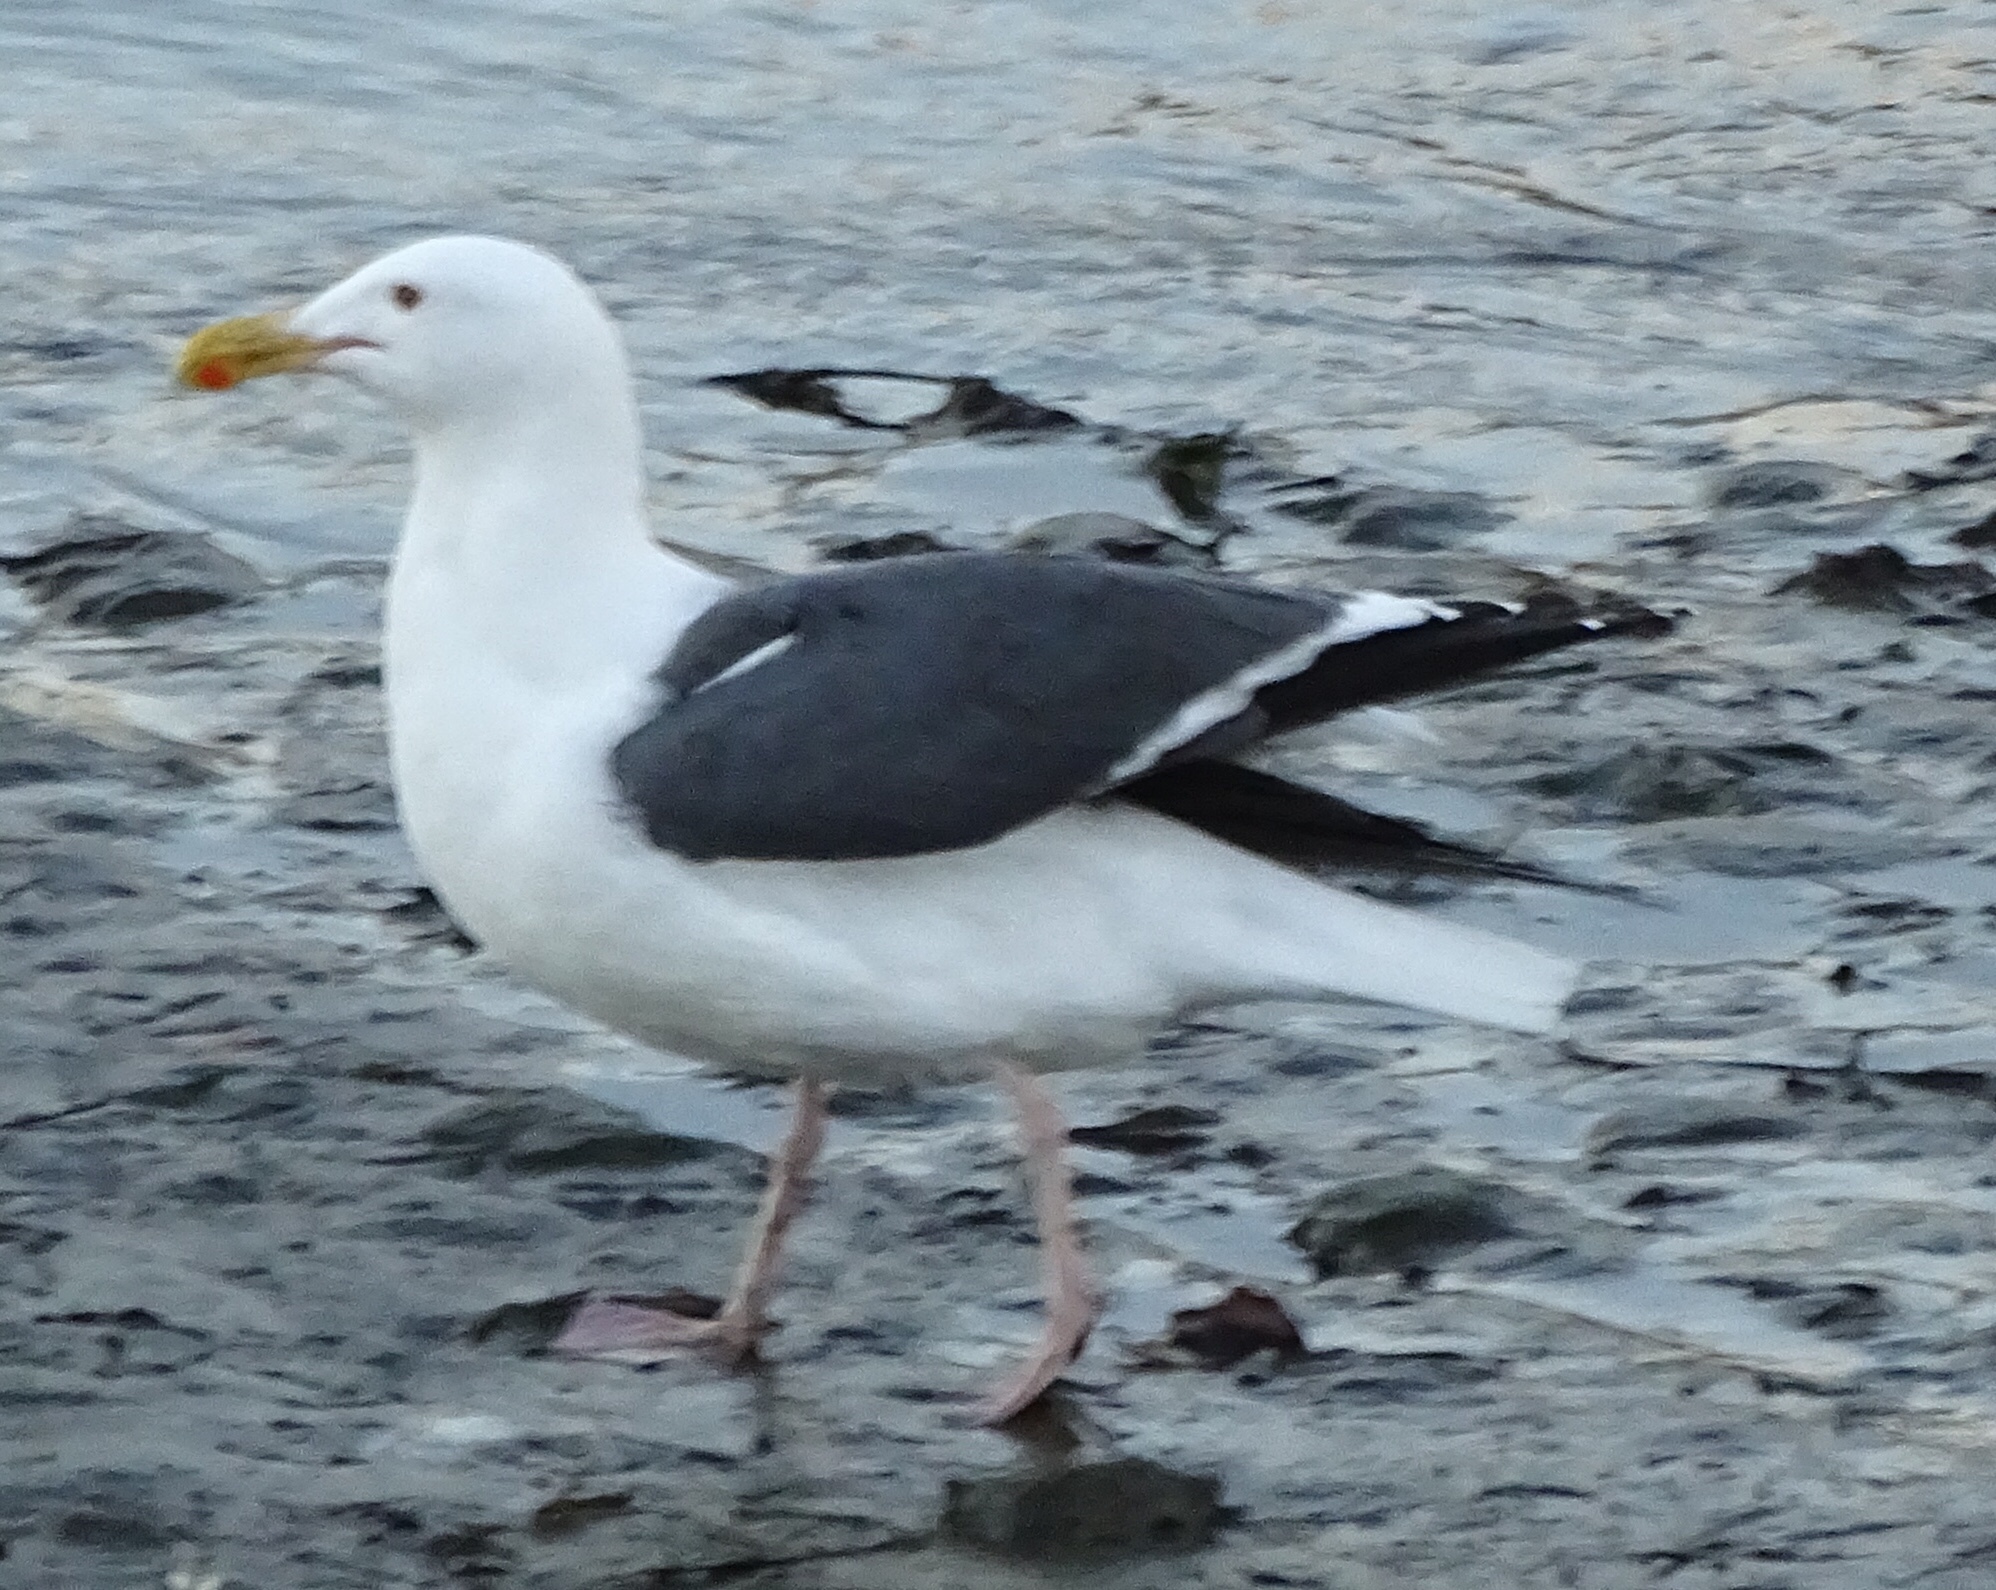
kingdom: Animalia
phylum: Chordata
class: Aves
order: Charadriiformes
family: Laridae
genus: Larus
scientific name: Larus occidentalis
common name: Western gull
